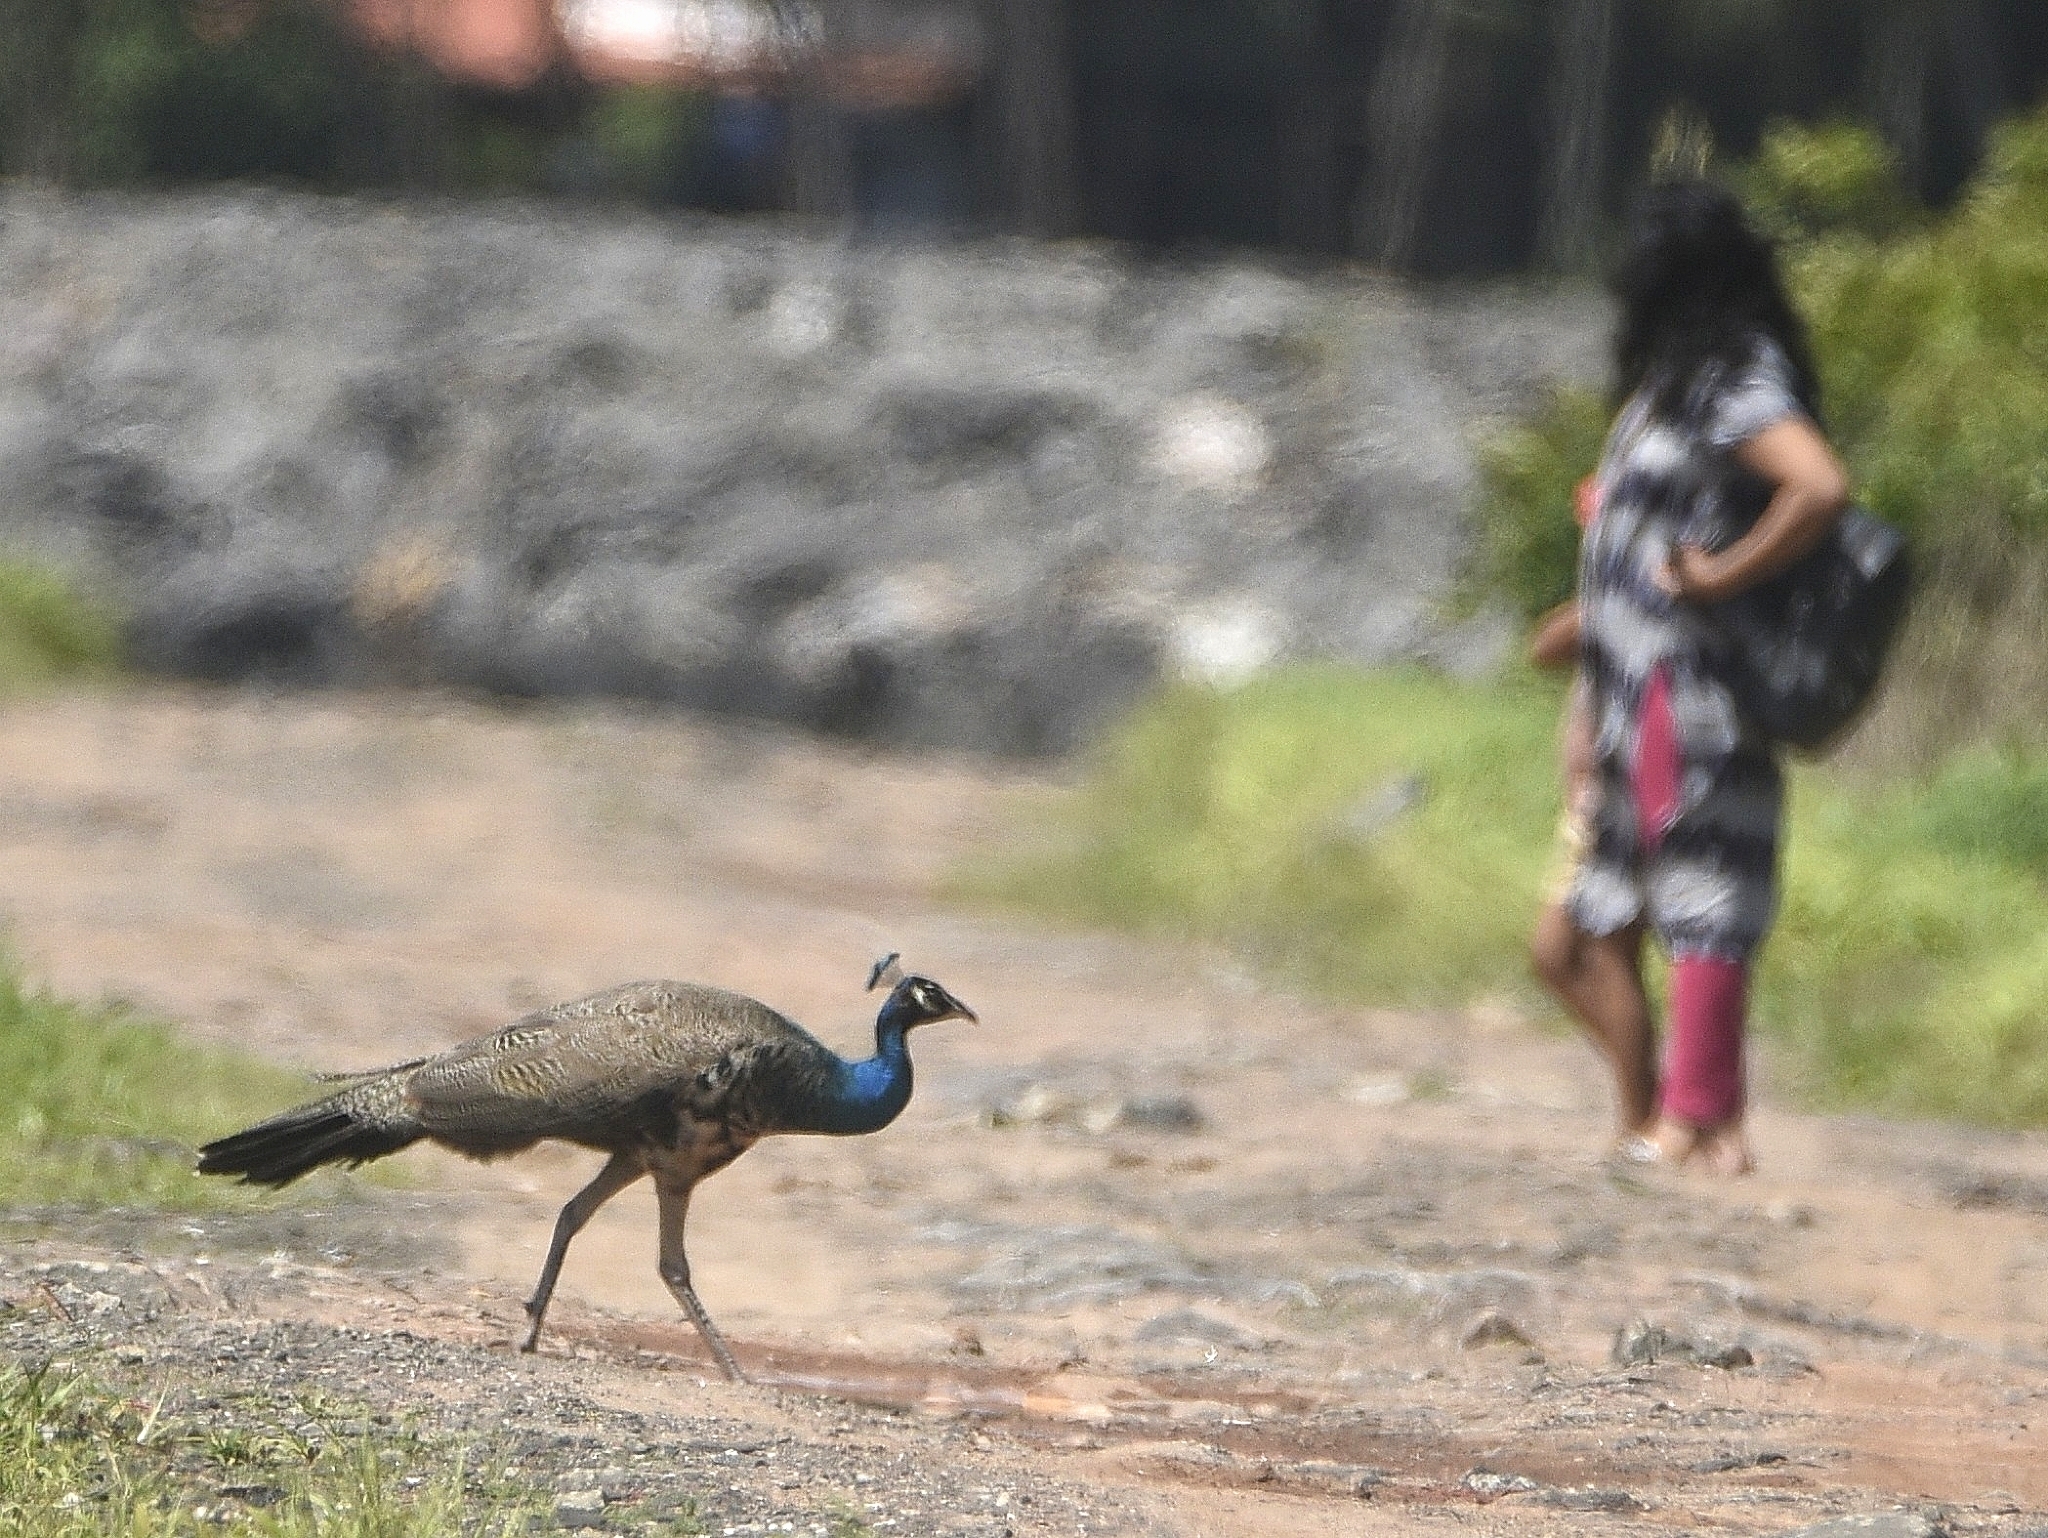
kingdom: Animalia
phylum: Chordata
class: Aves
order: Galliformes
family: Phasianidae
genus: Pavo
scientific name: Pavo cristatus
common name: Indian peafowl
